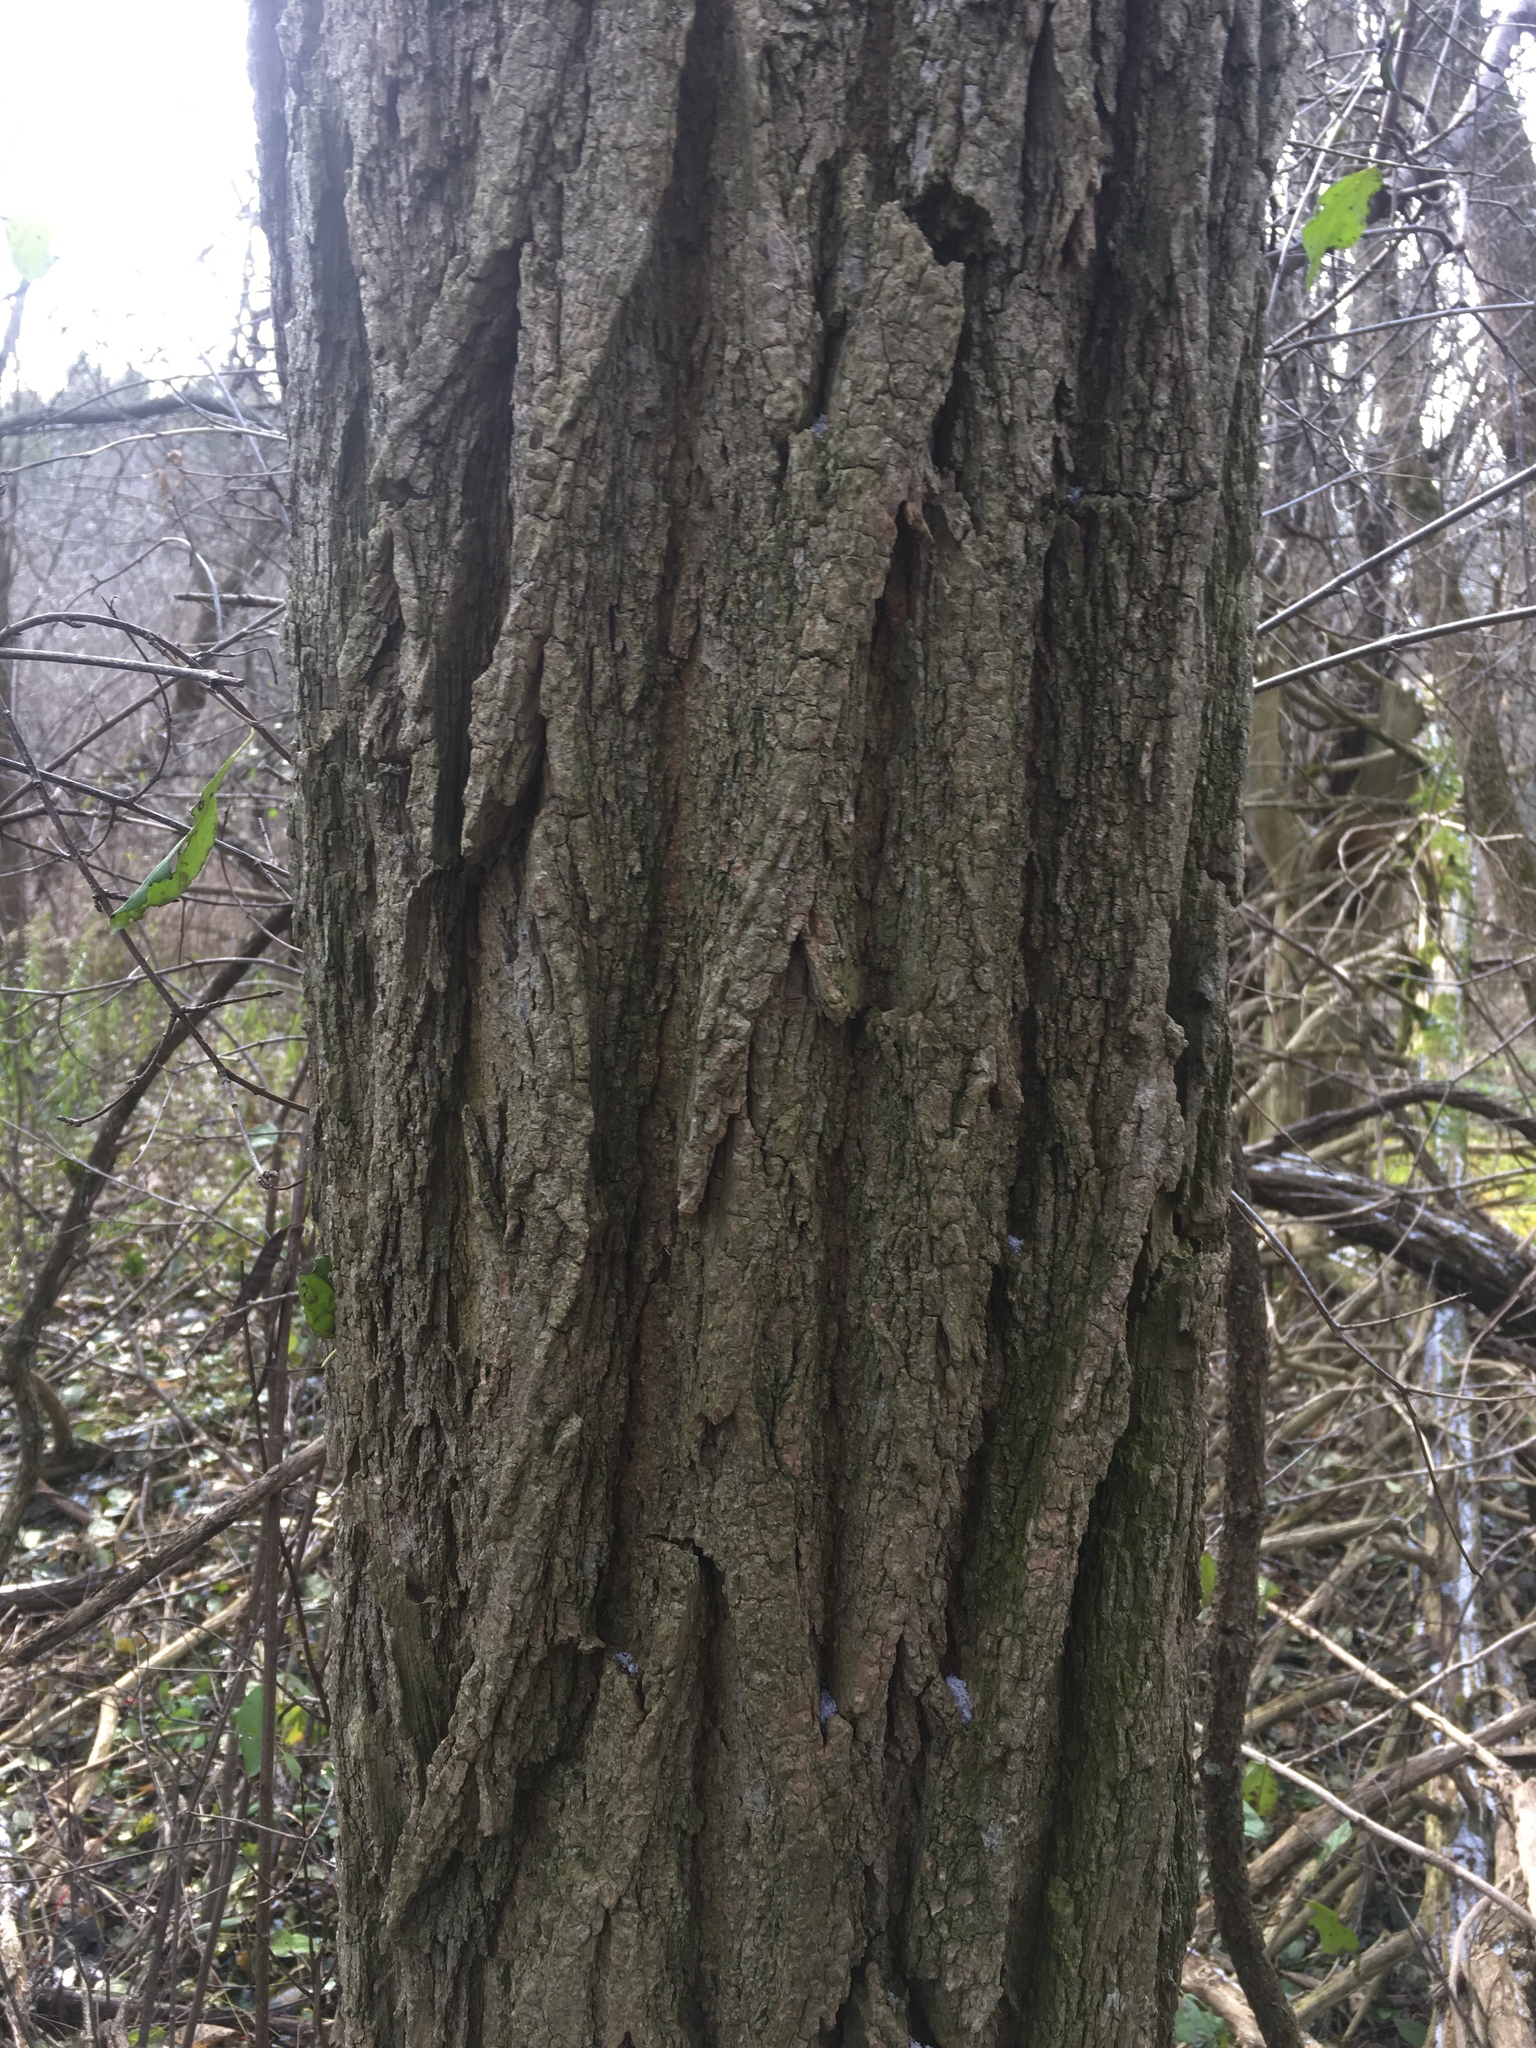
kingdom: Plantae
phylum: Tracheophyta
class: Magnoliopsida
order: Fabales
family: Fabaceae
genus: Robinia
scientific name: Robinia pseudoacacia
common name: Black locust
